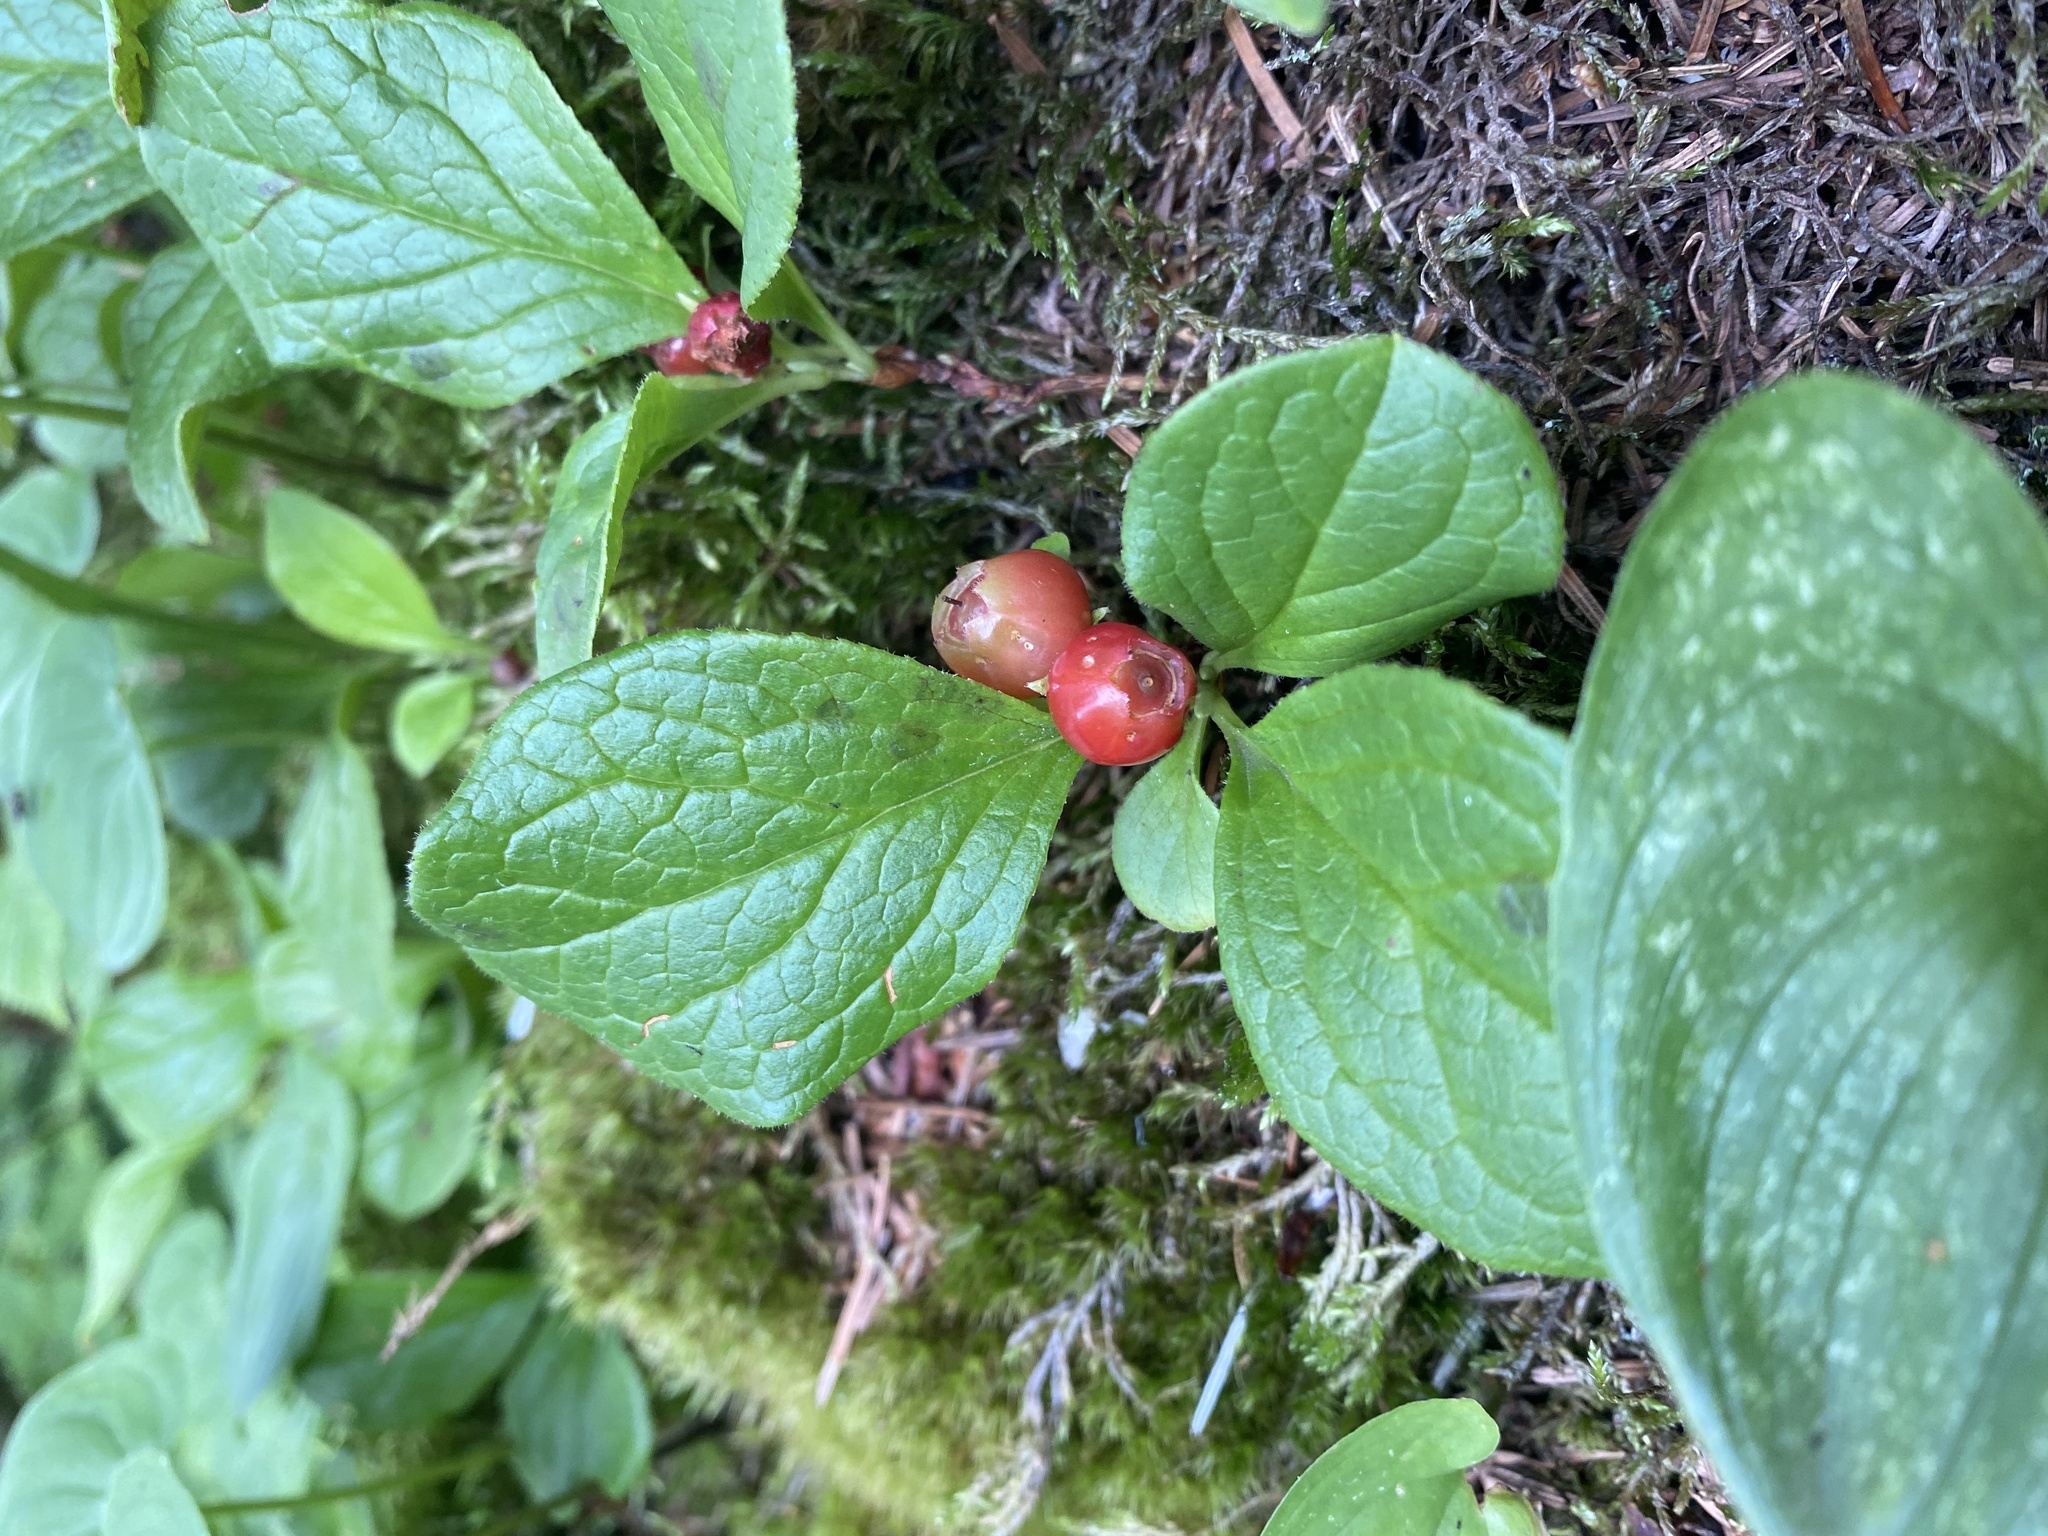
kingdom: Plantae
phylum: Tracheophyta
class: Magnoliopsida
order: Ericales
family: Ericaceae
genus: Vaccinium
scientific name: Vaccinium praestans
